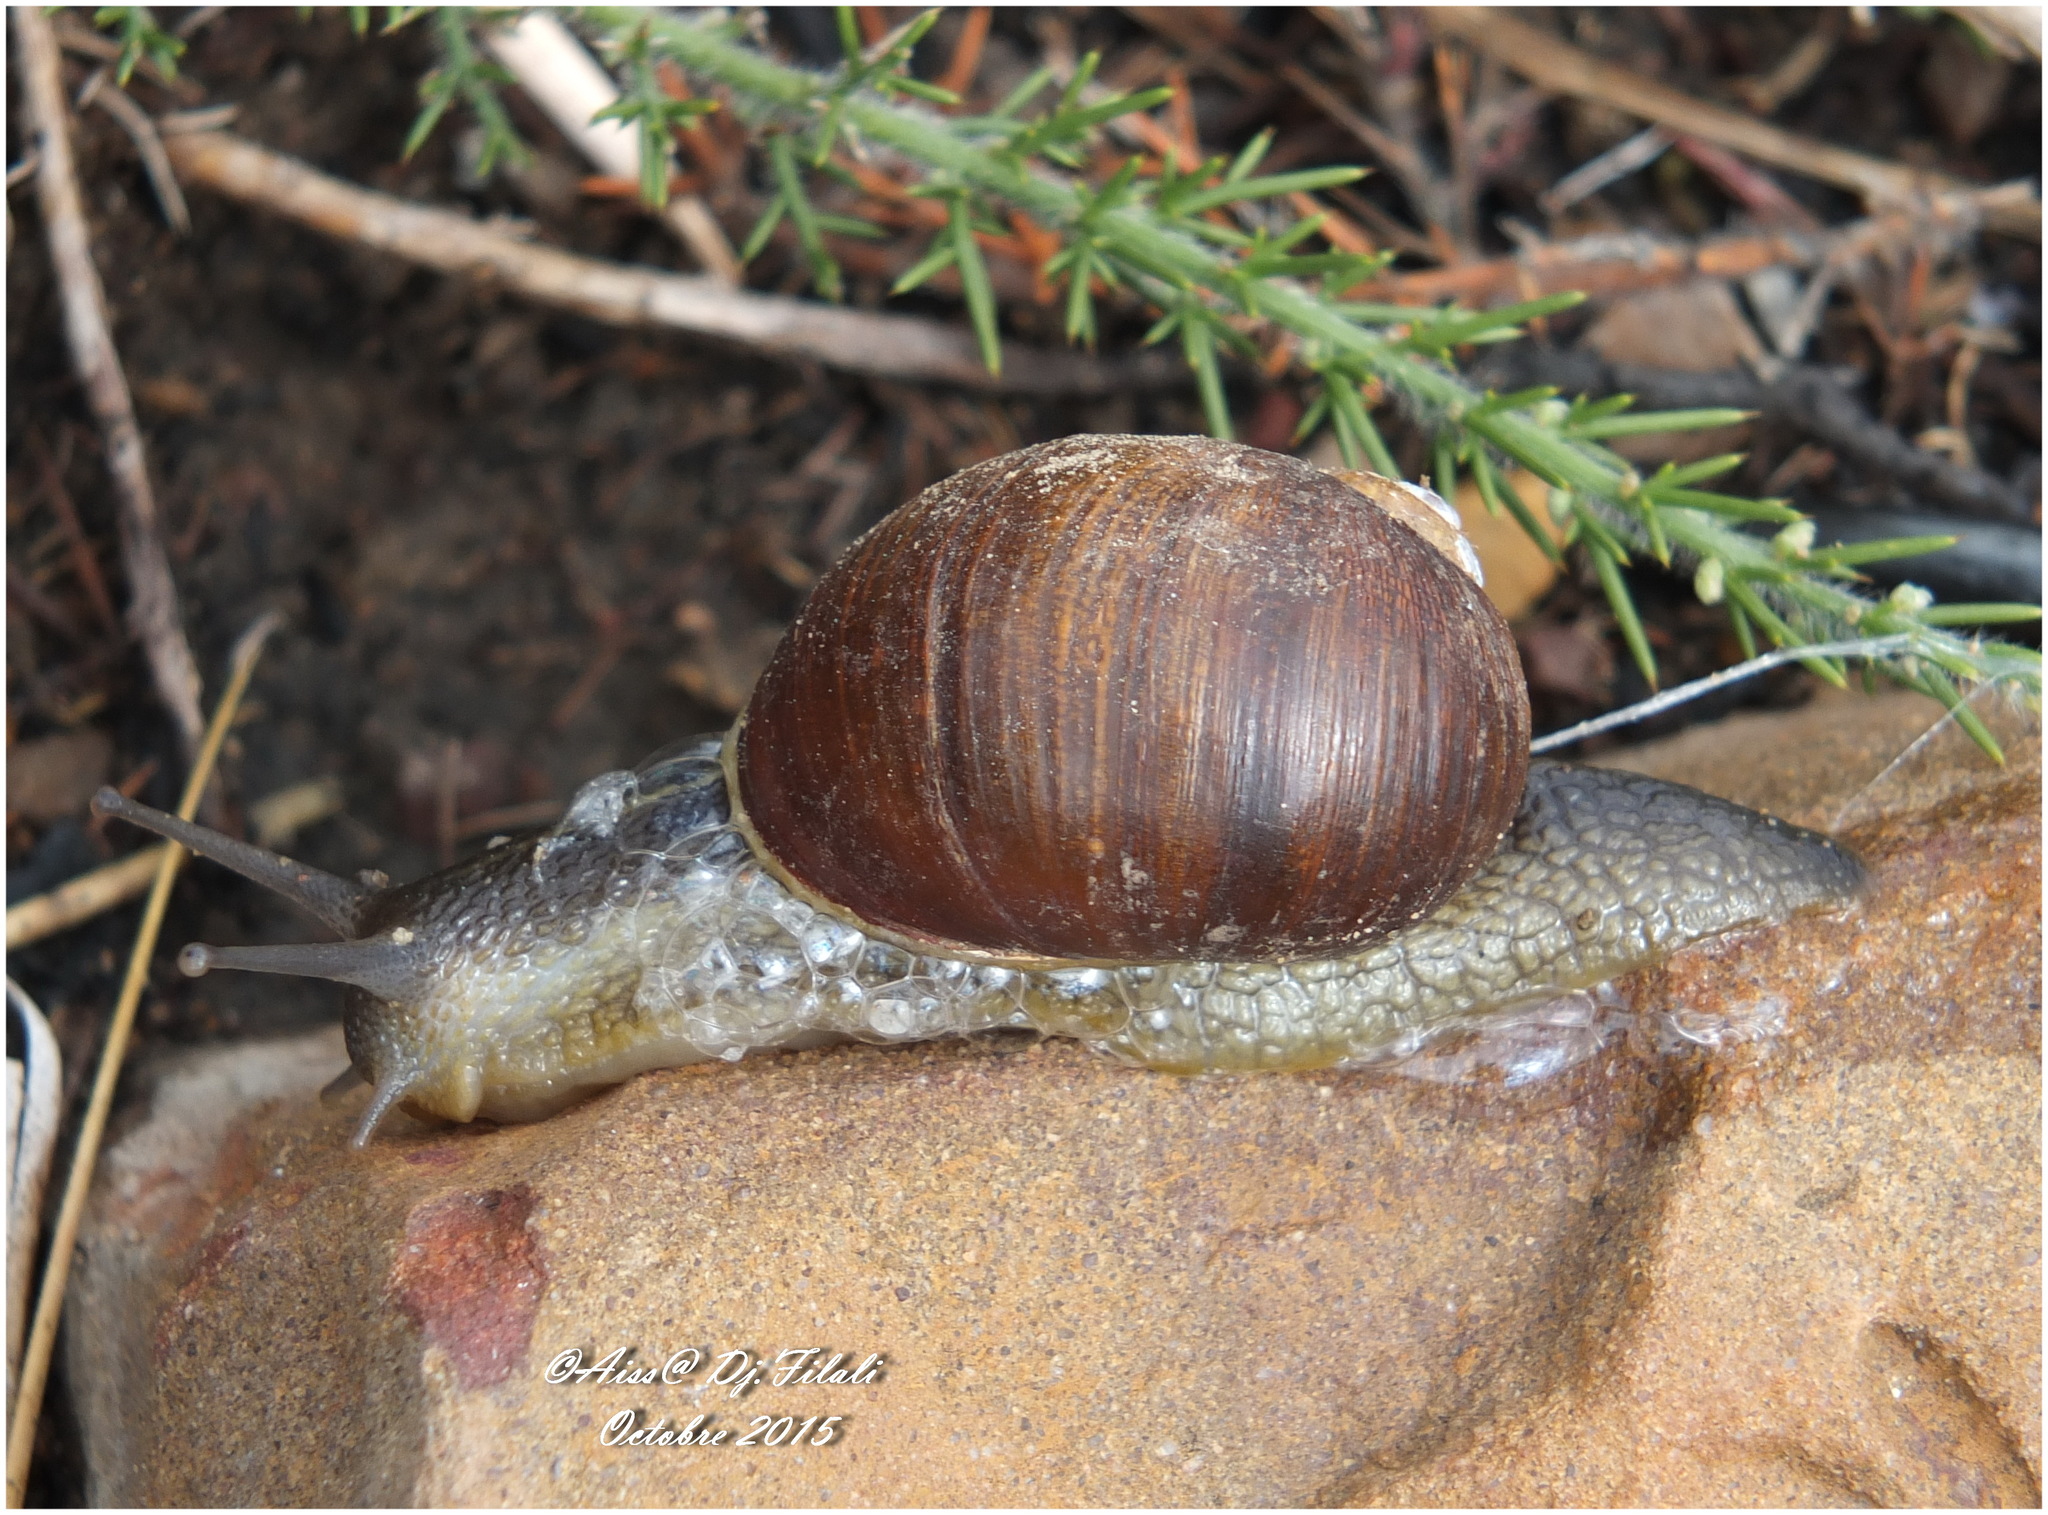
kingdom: Animalia
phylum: Mollusca
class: Gastropoda
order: Stylommatophora
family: Helicidae
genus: Cantareus
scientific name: Cantareus apertus
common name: Green gardensnail
